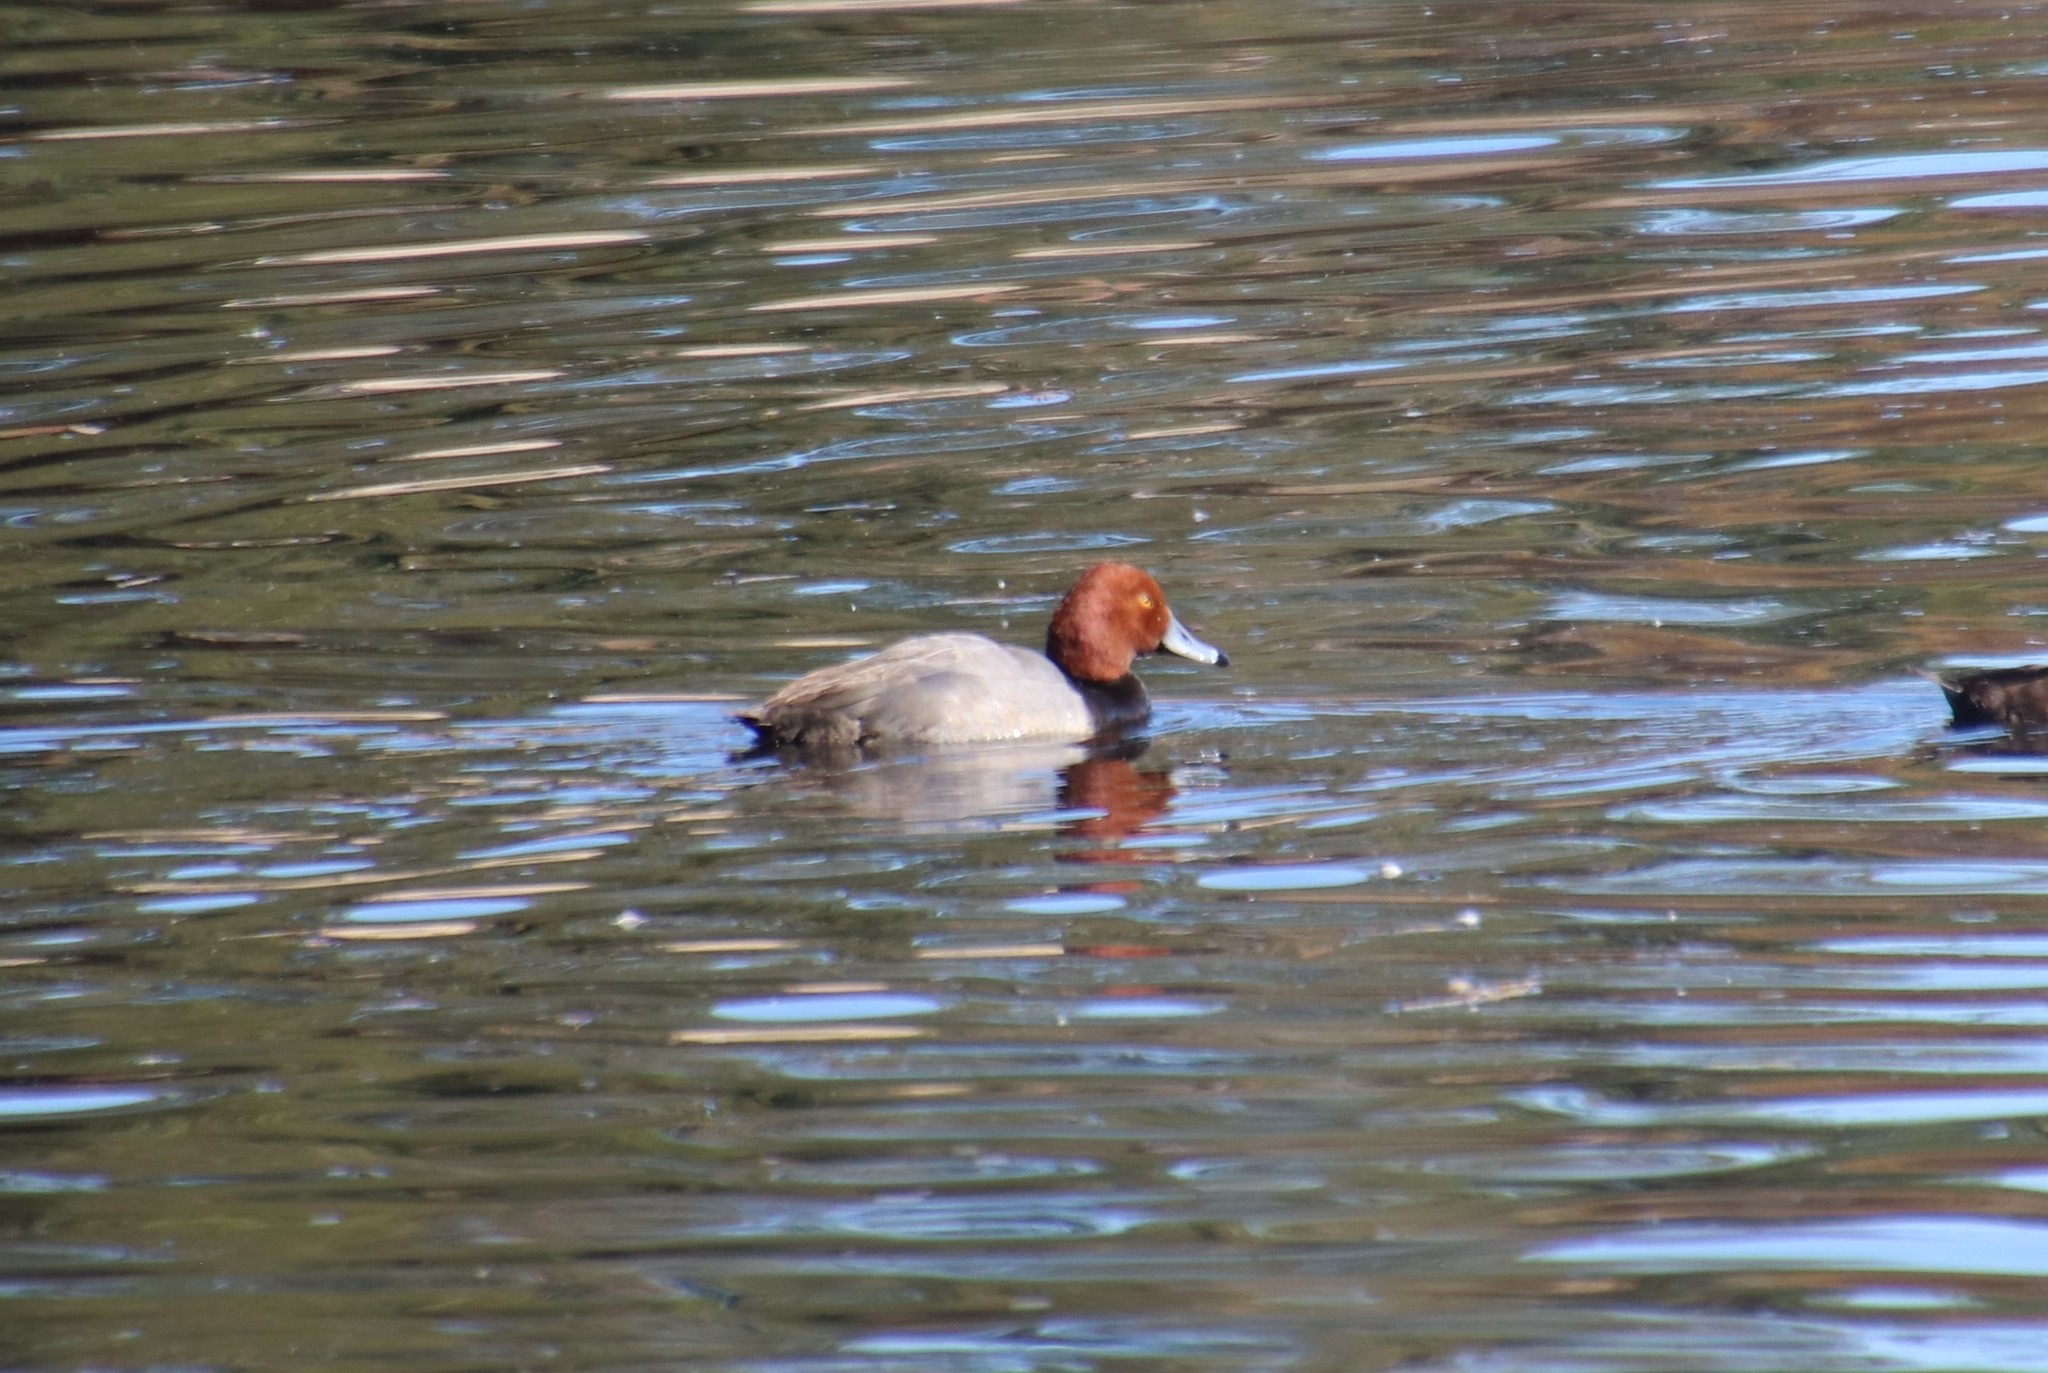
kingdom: Animalia
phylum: Chordata
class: Aves
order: Anseriformes
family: Anatidae
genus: Aythya
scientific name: Aythya americana
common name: Redhead
